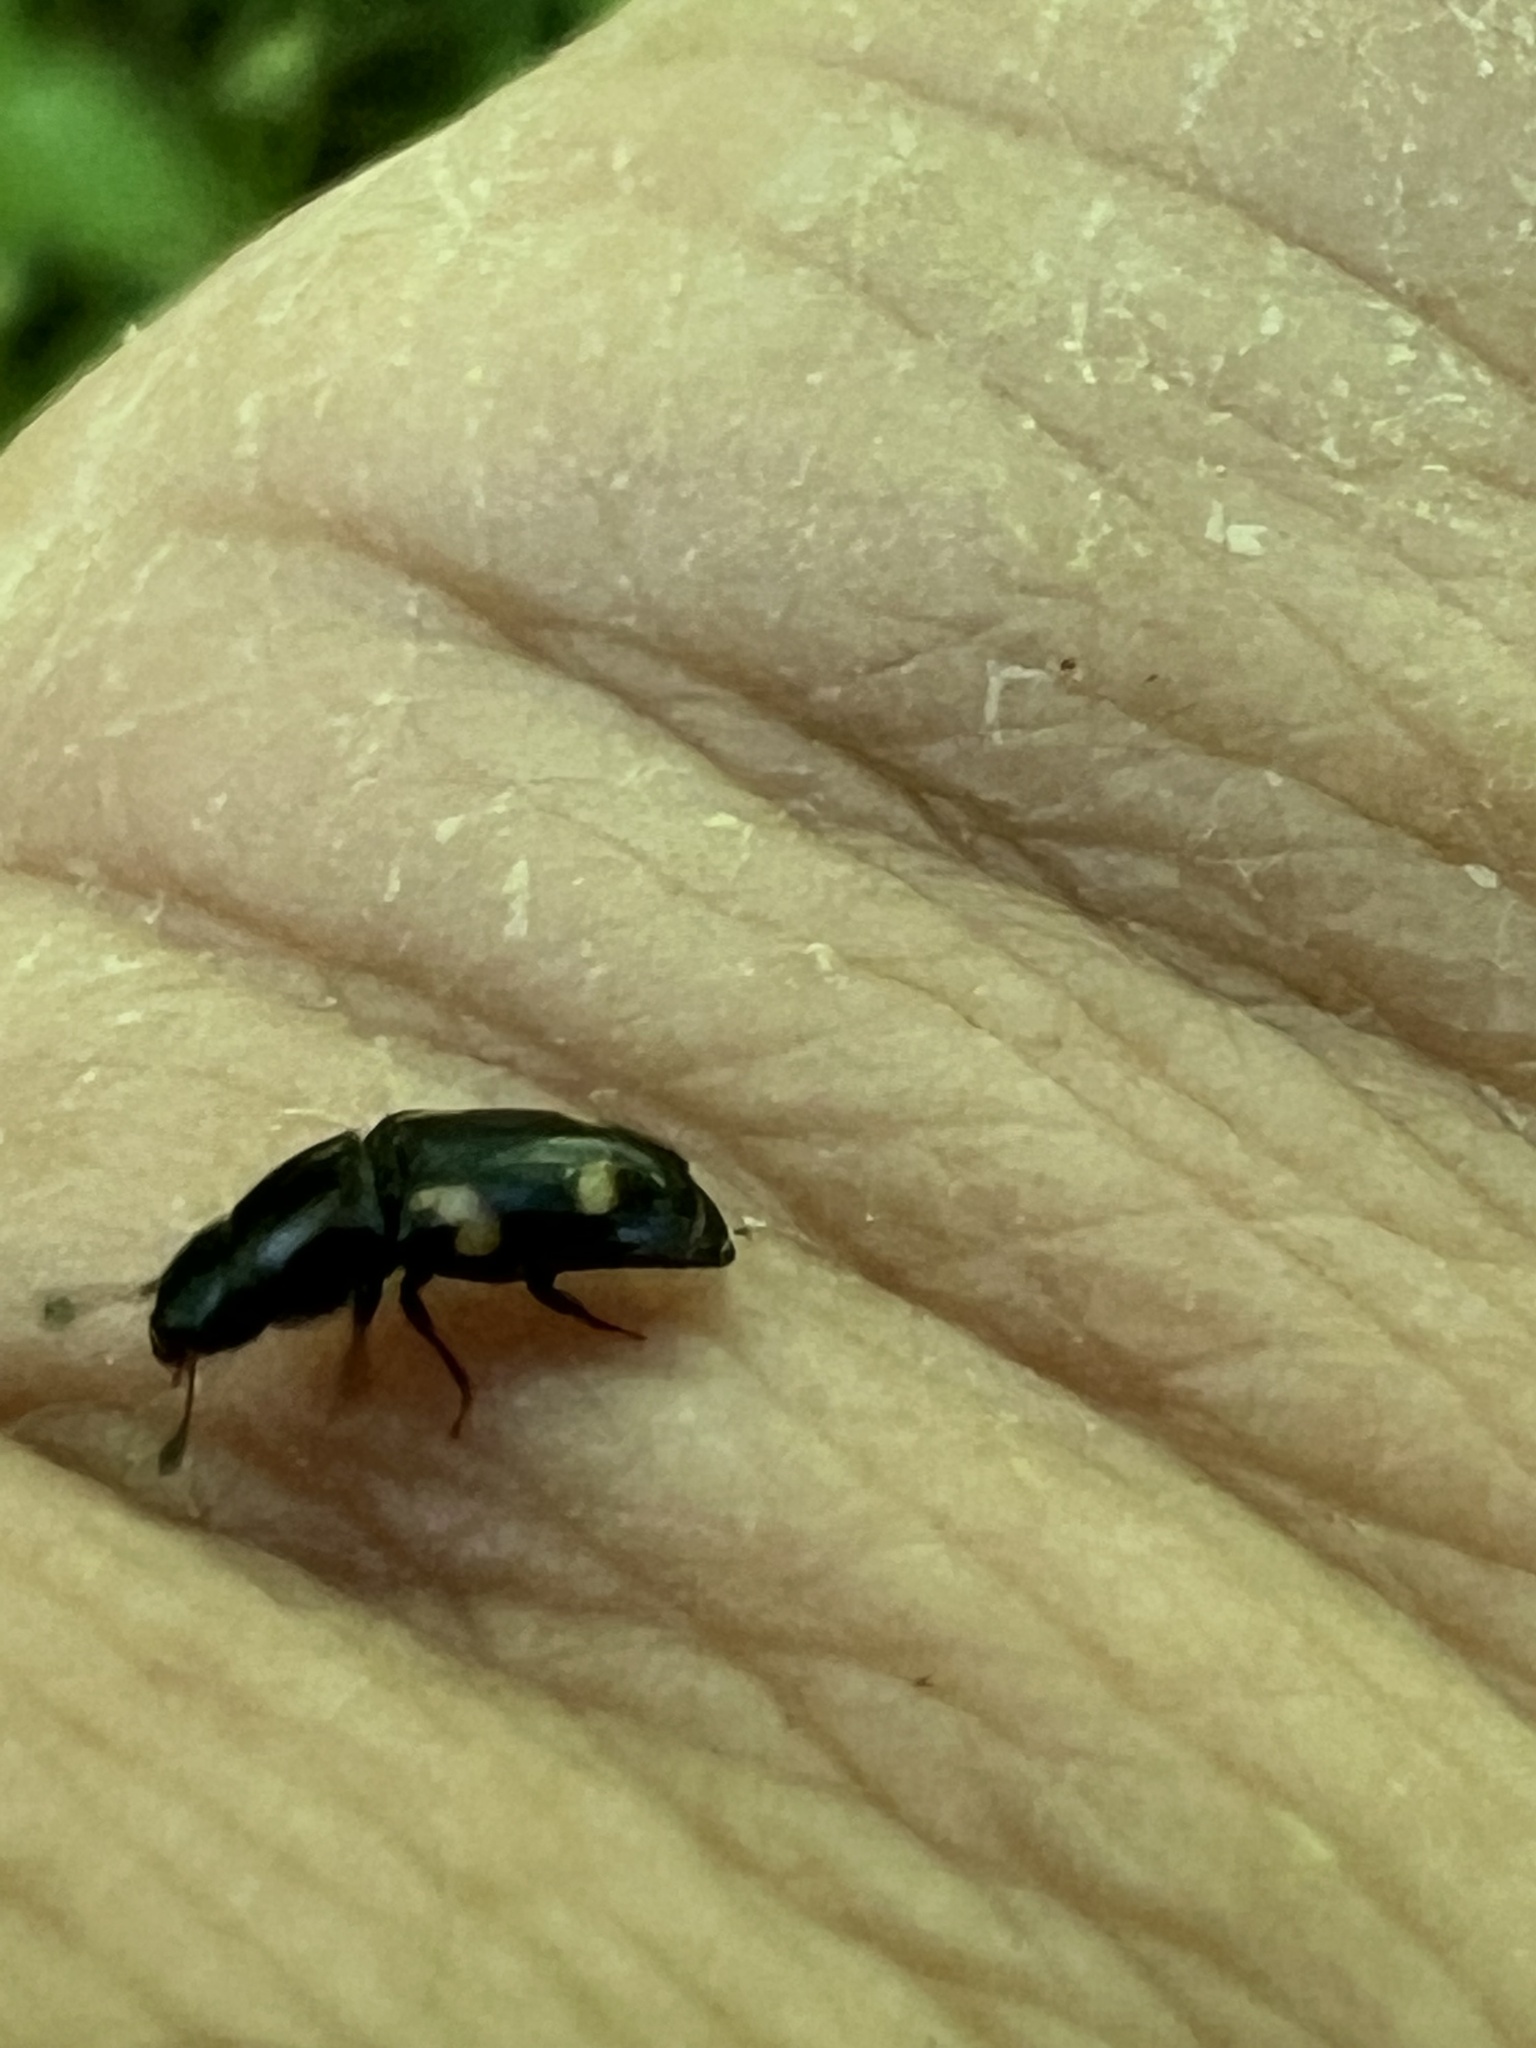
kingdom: Animalia
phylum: Arthropoda
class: Insecta
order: Coleoptera
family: Nitidulidae
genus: Glischrochilus
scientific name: Glischrochilus quadrisignatus
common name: Picnic beetle
